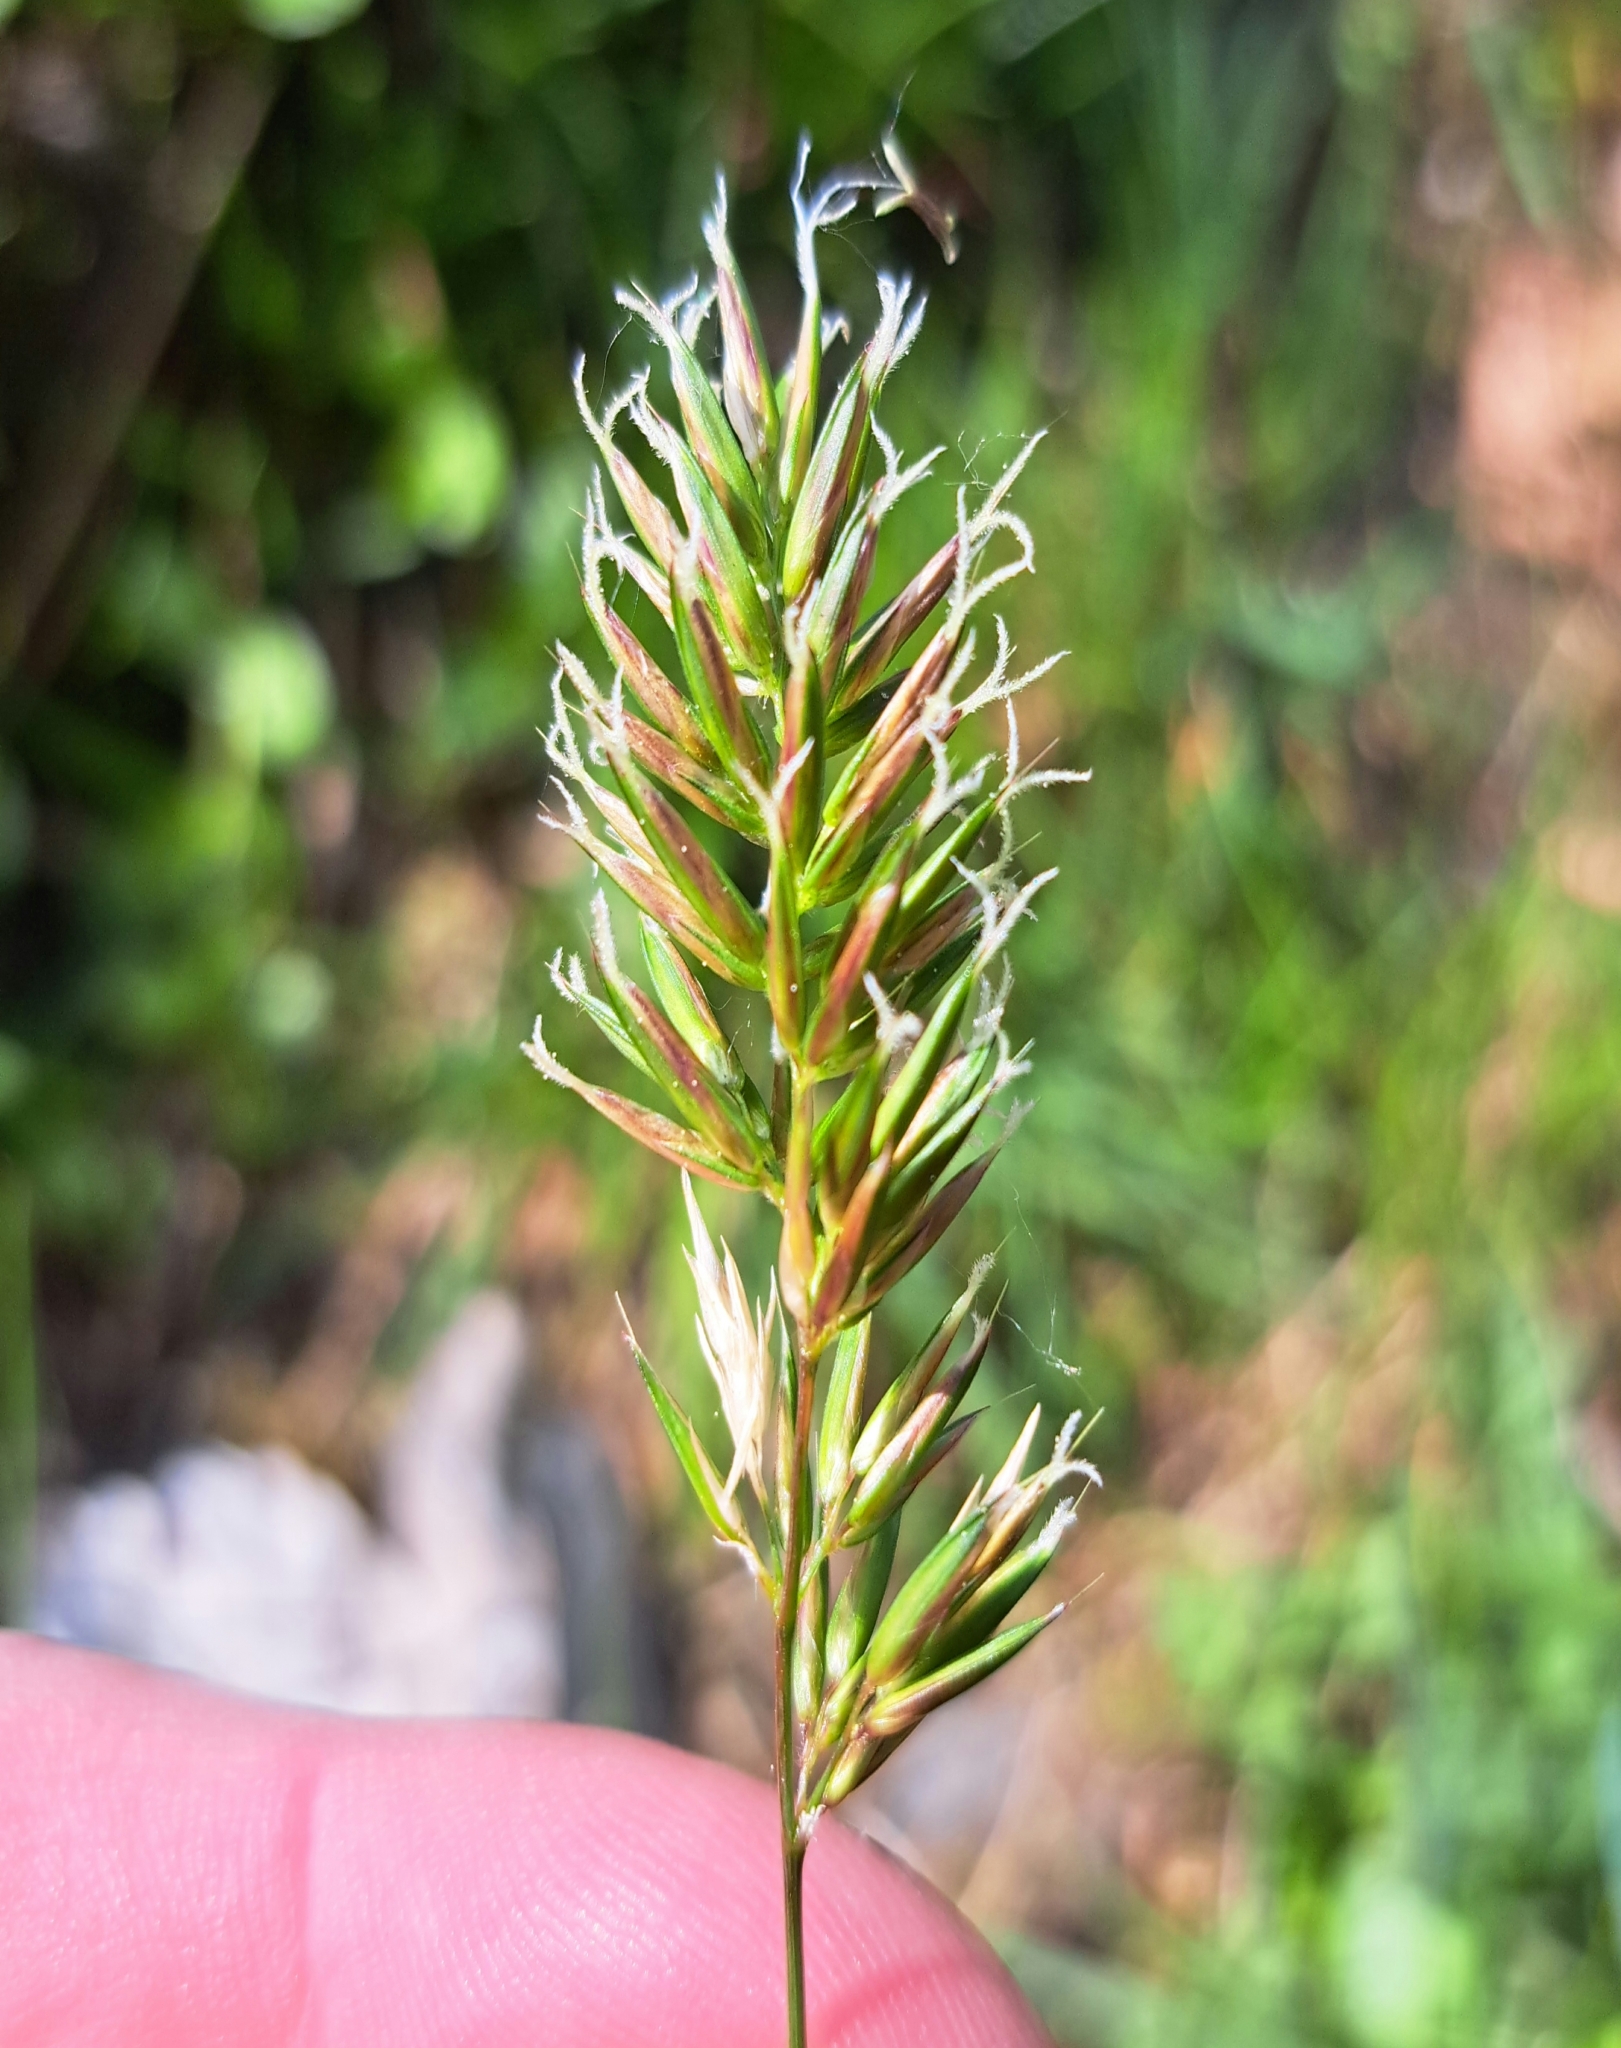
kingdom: Plantae
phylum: Tracheophyta
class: Liliopsida
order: Poales
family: Poaceae
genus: Anthoxanthum
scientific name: Anthoxanthum odoratum
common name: Sweet vernalgrass
